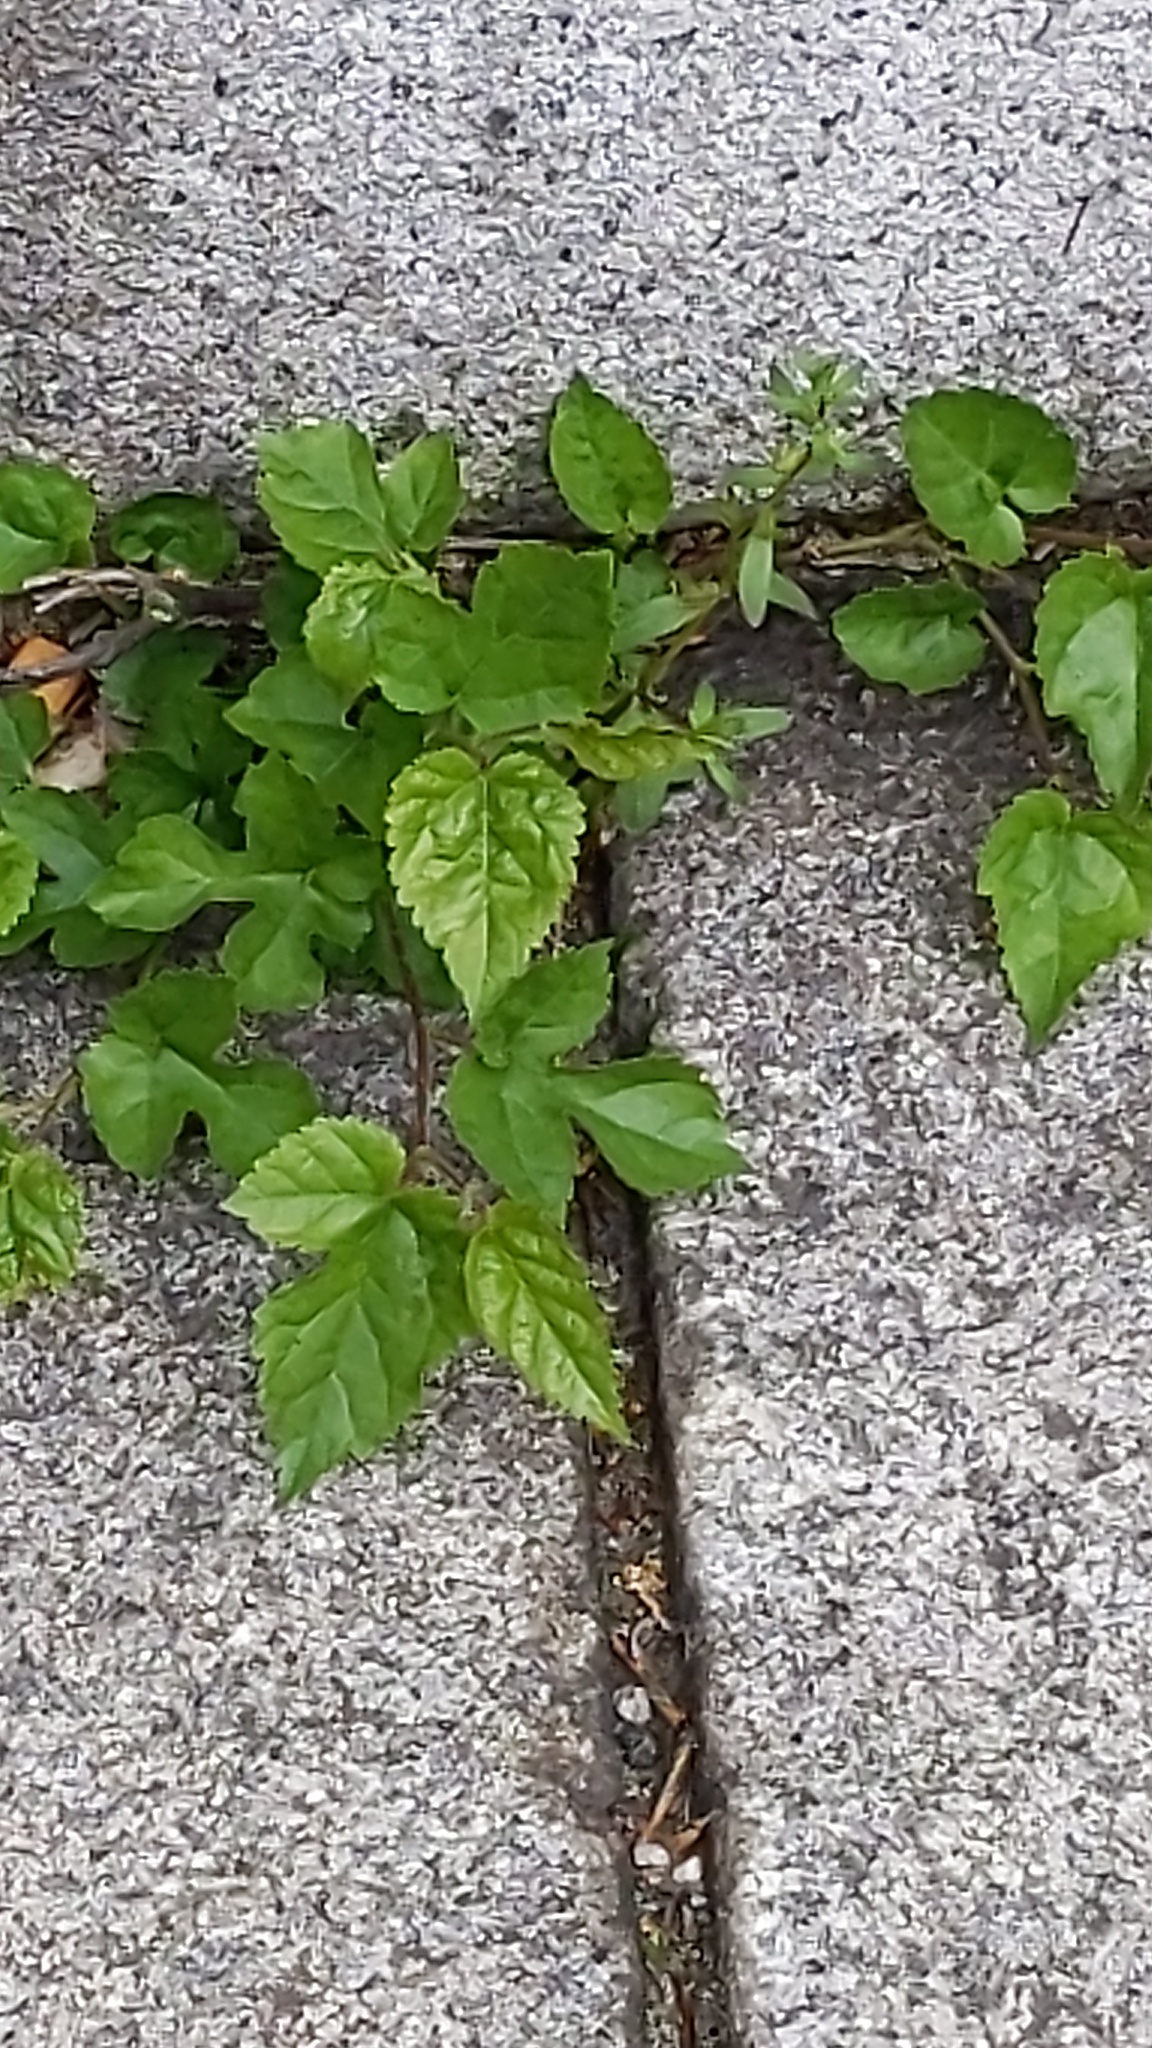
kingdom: Plantae
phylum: Tracheophyta
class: Magnoliopsida
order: Rosales
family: Moraceae
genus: Morus
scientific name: Morus alba
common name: White mulberry
